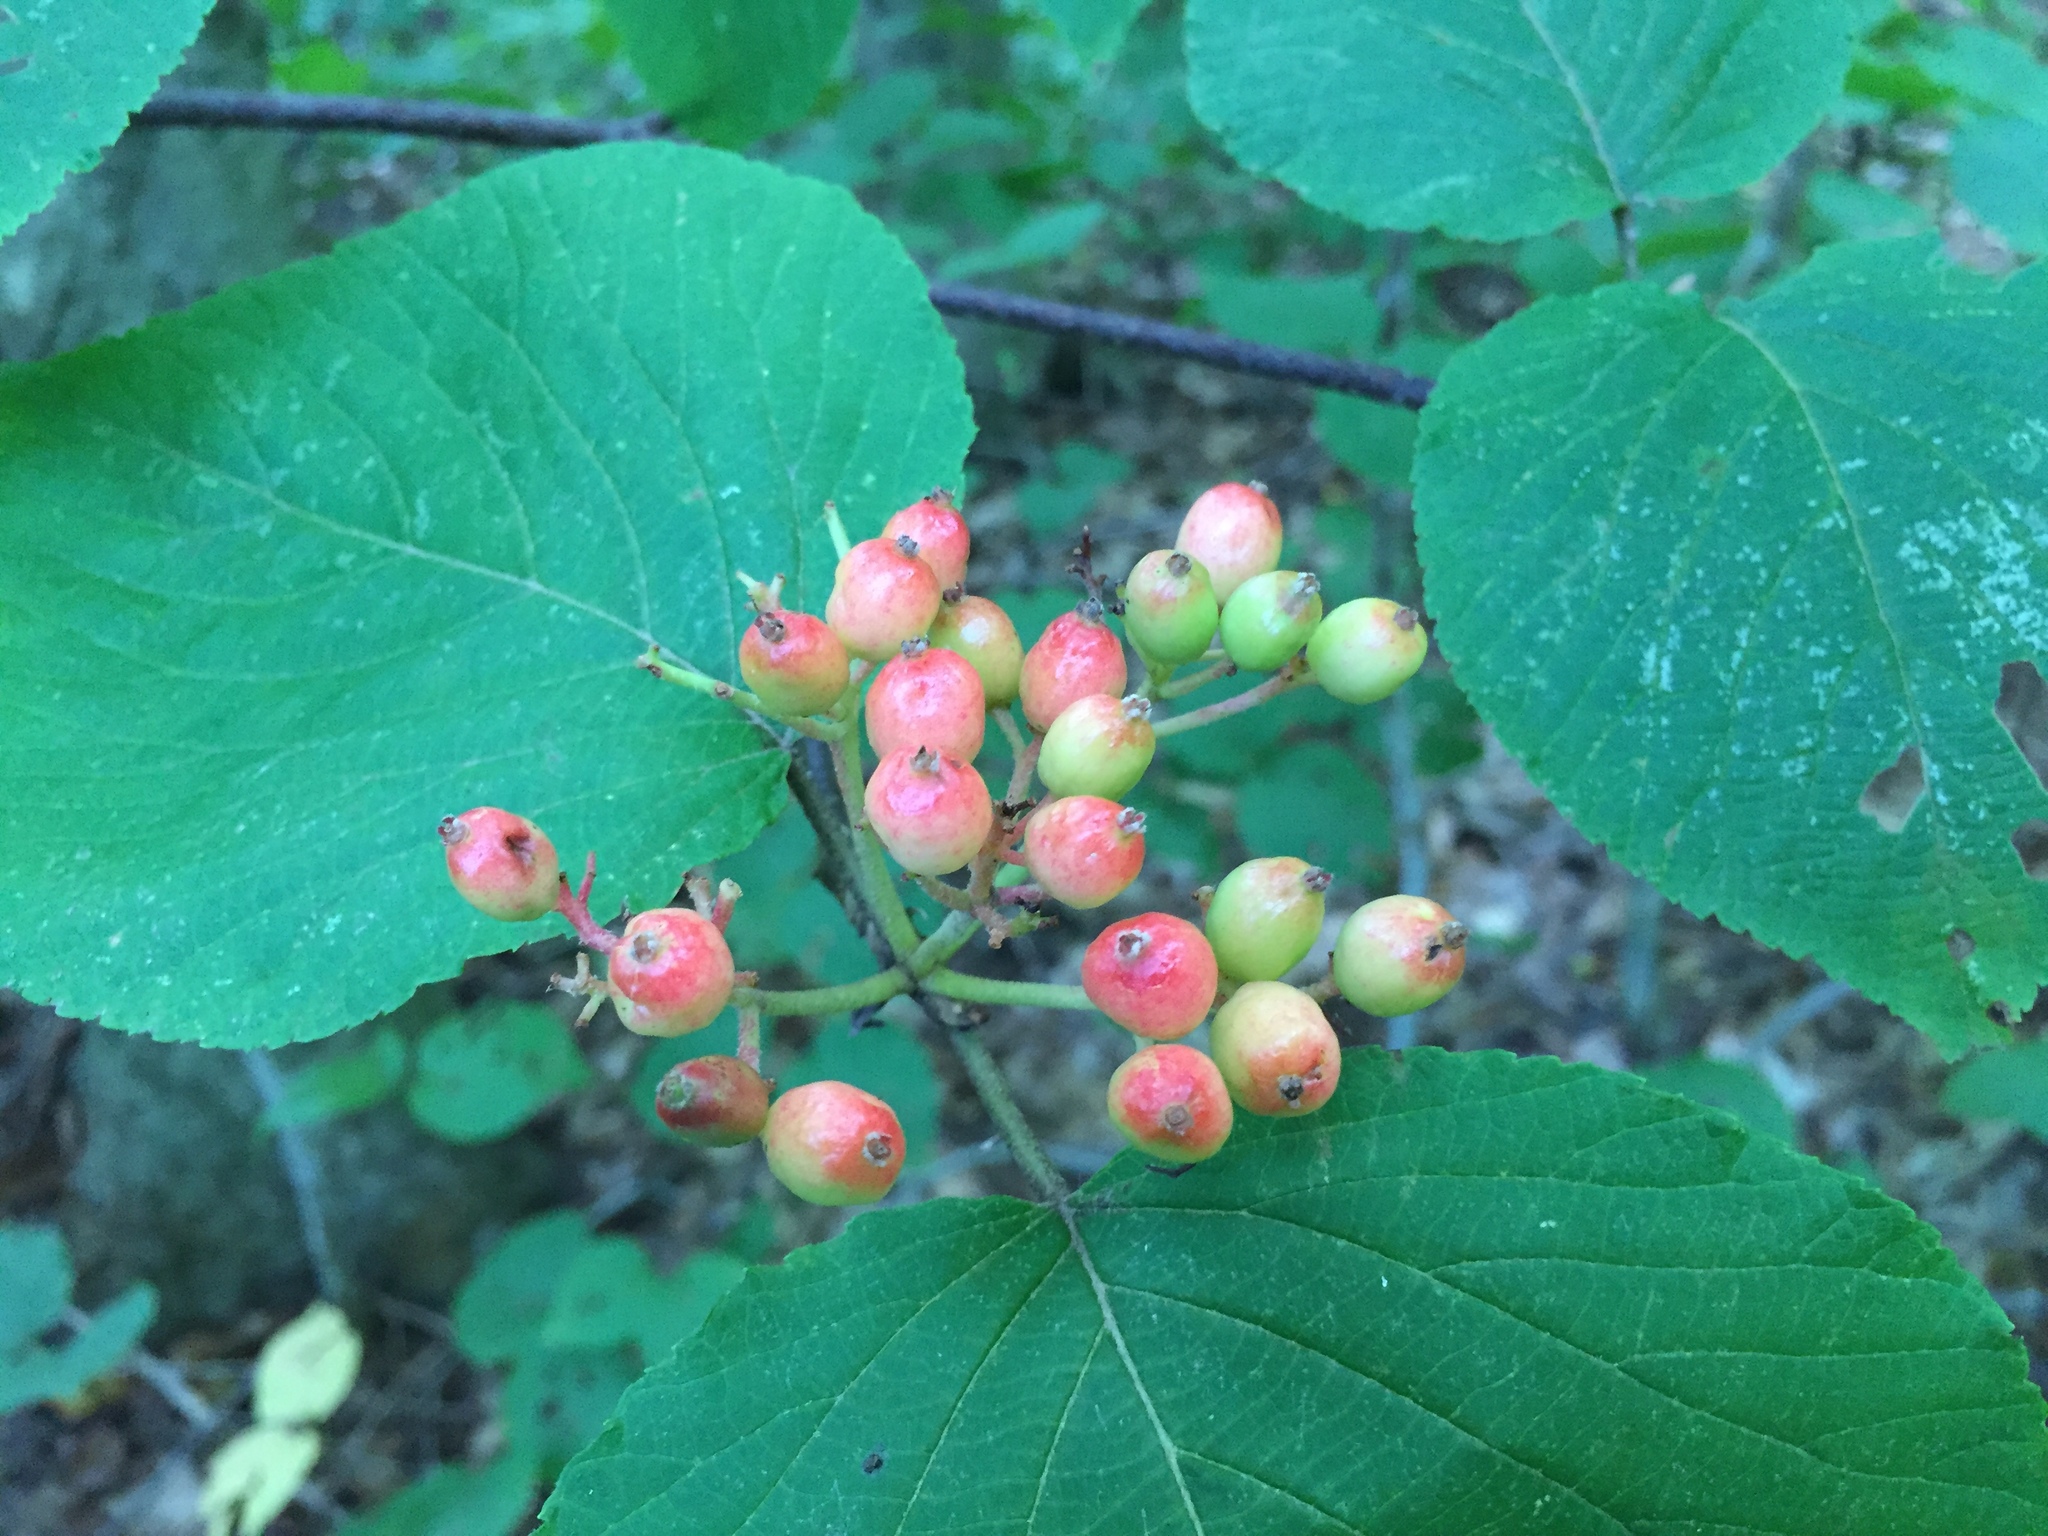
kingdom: Plantae
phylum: Tracheophyta
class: Magnoliopsida
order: Dipsacales
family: Viburnaceae
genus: Viburnum
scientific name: Viburnum lantanoides
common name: Hobblebush
